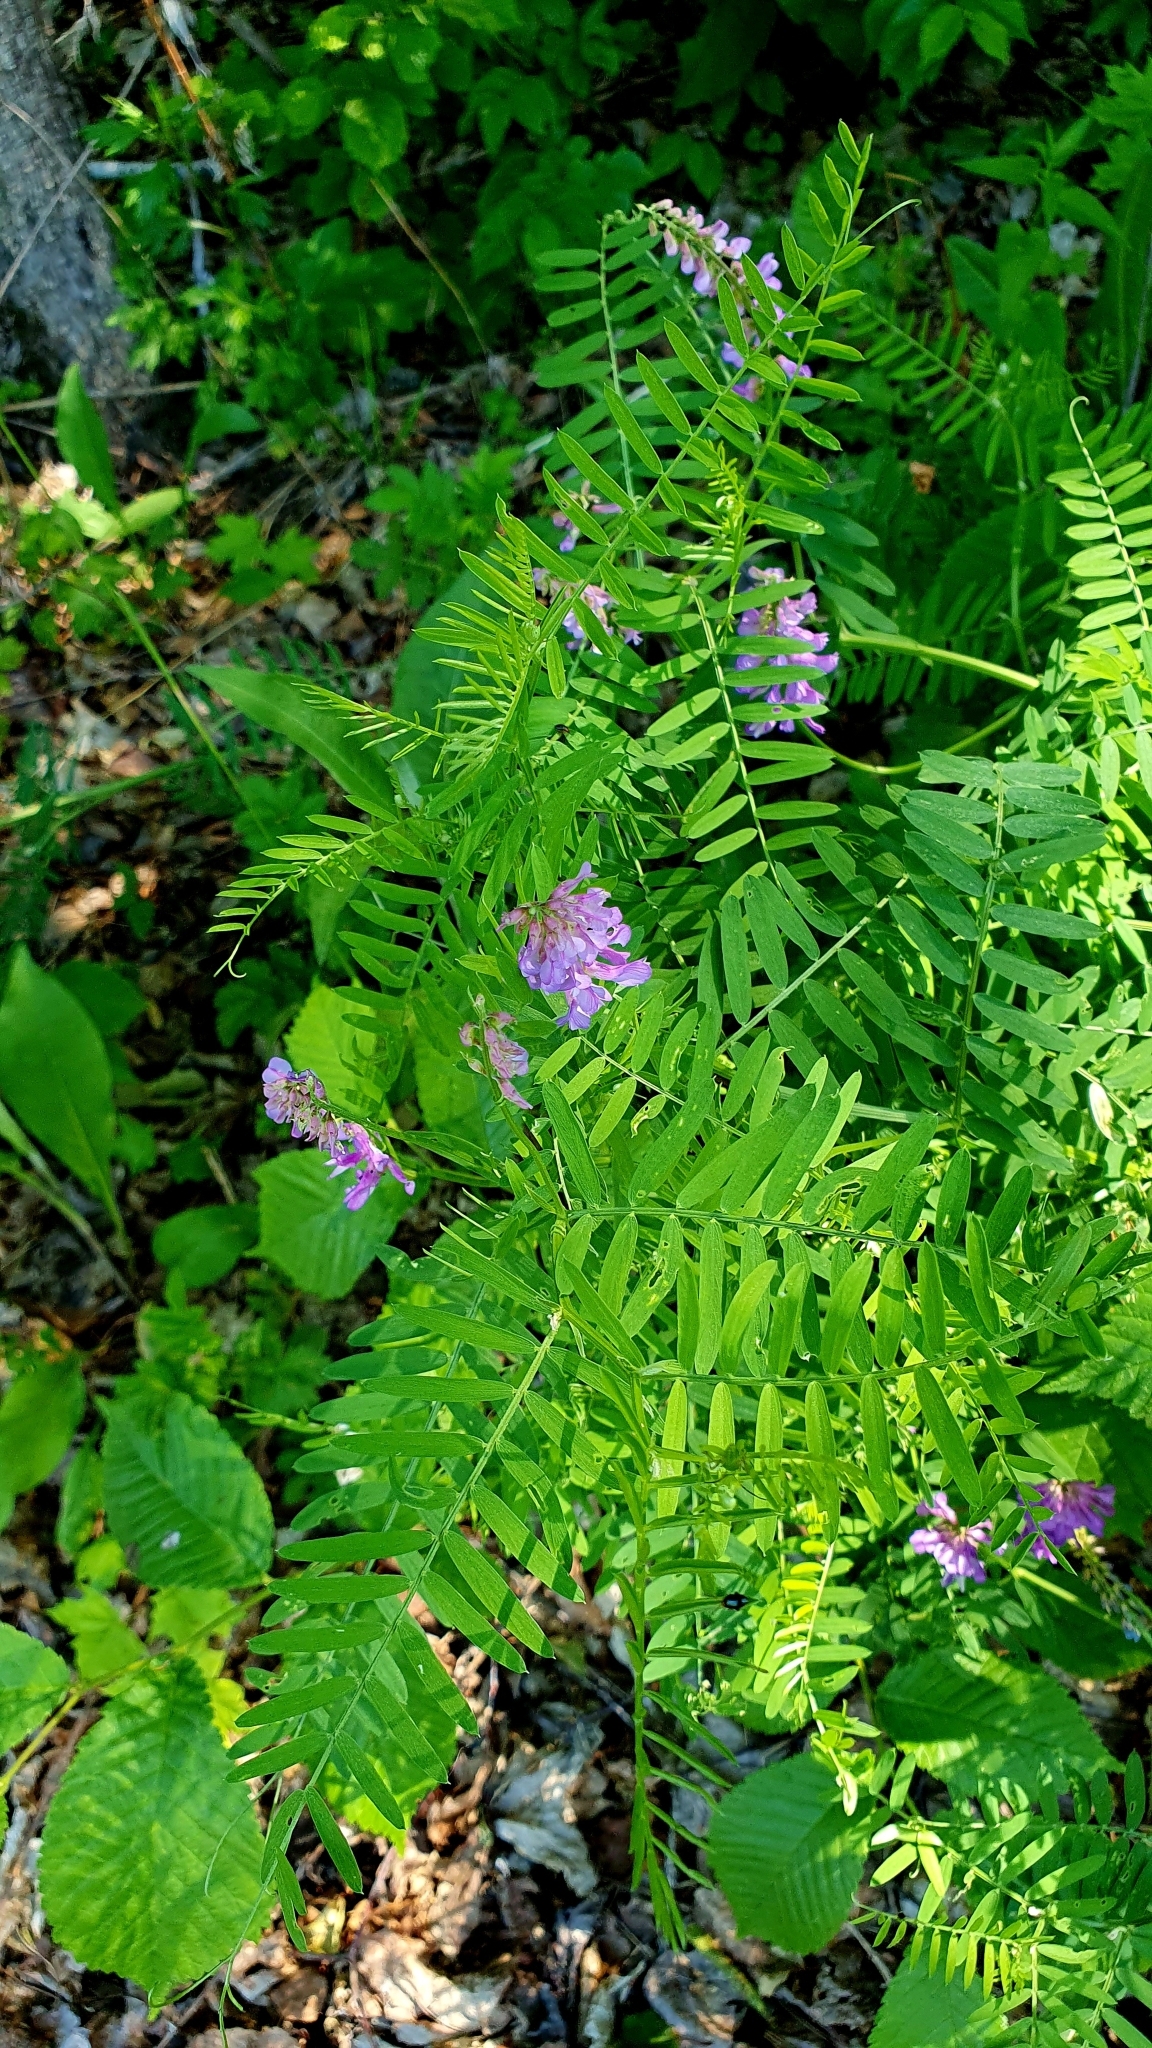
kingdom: Plantae
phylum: Tracheophyta
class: Magnoliopsida
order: Fabales
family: Fabaceae
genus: Vicia
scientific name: Vicia cracca
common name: Bird vetch
